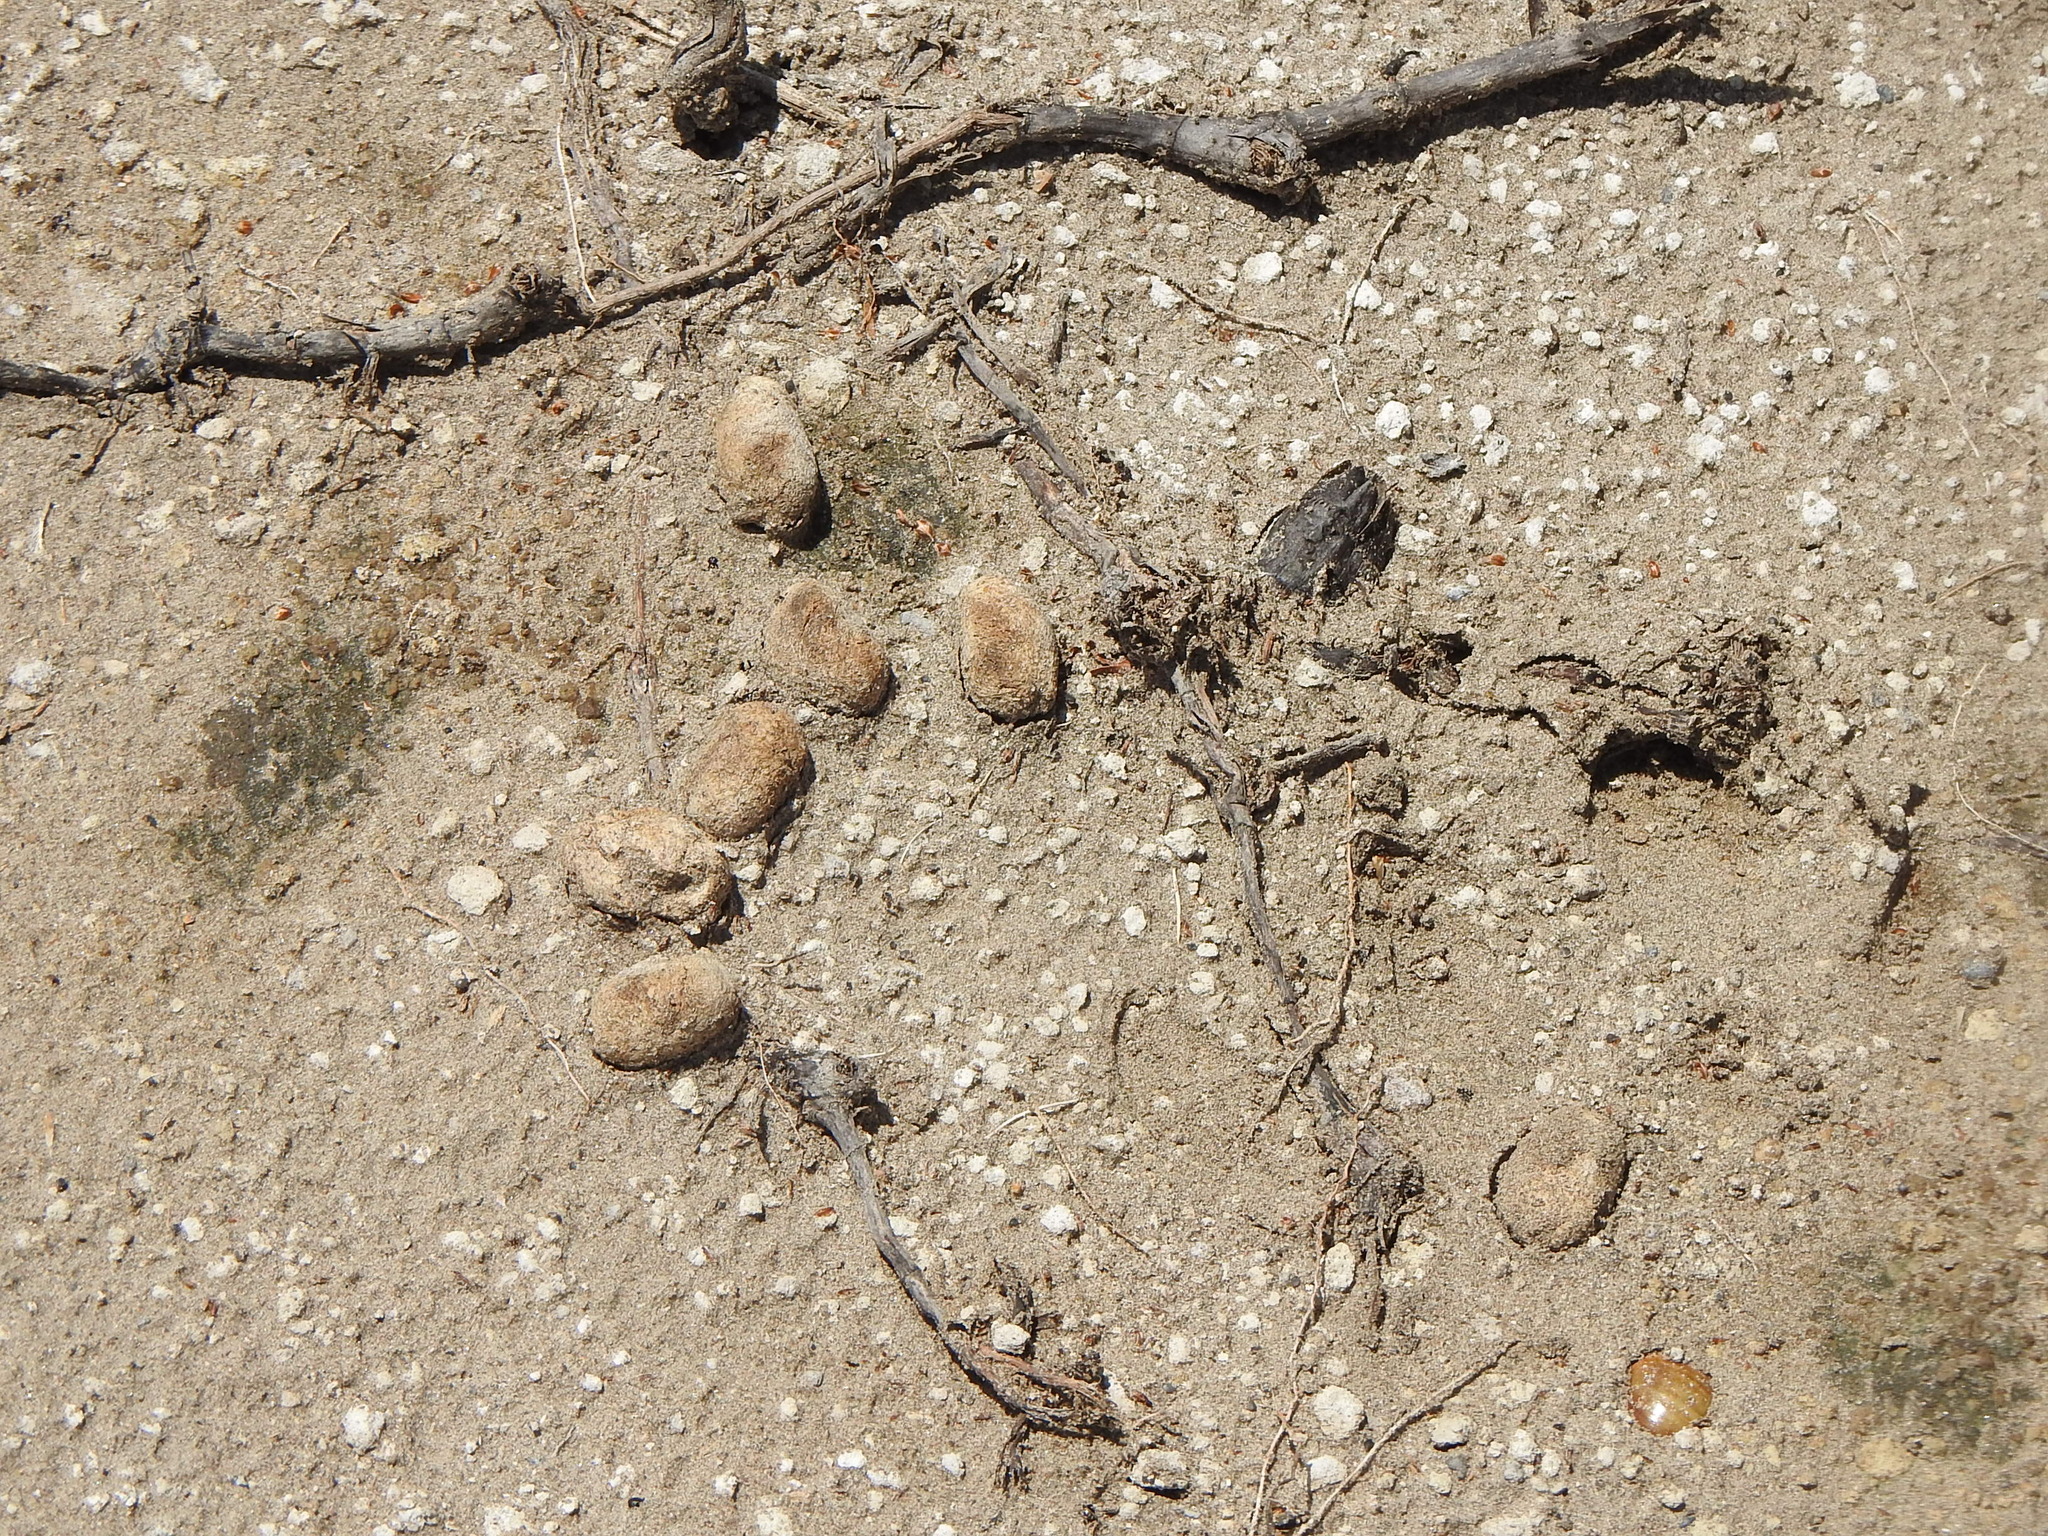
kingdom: Animalia
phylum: Chordata
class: Mammalia
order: Rodentia
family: Caviidae
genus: Hydrochoerus
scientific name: Hydrochoerus hydrochaeris
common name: Capybara
